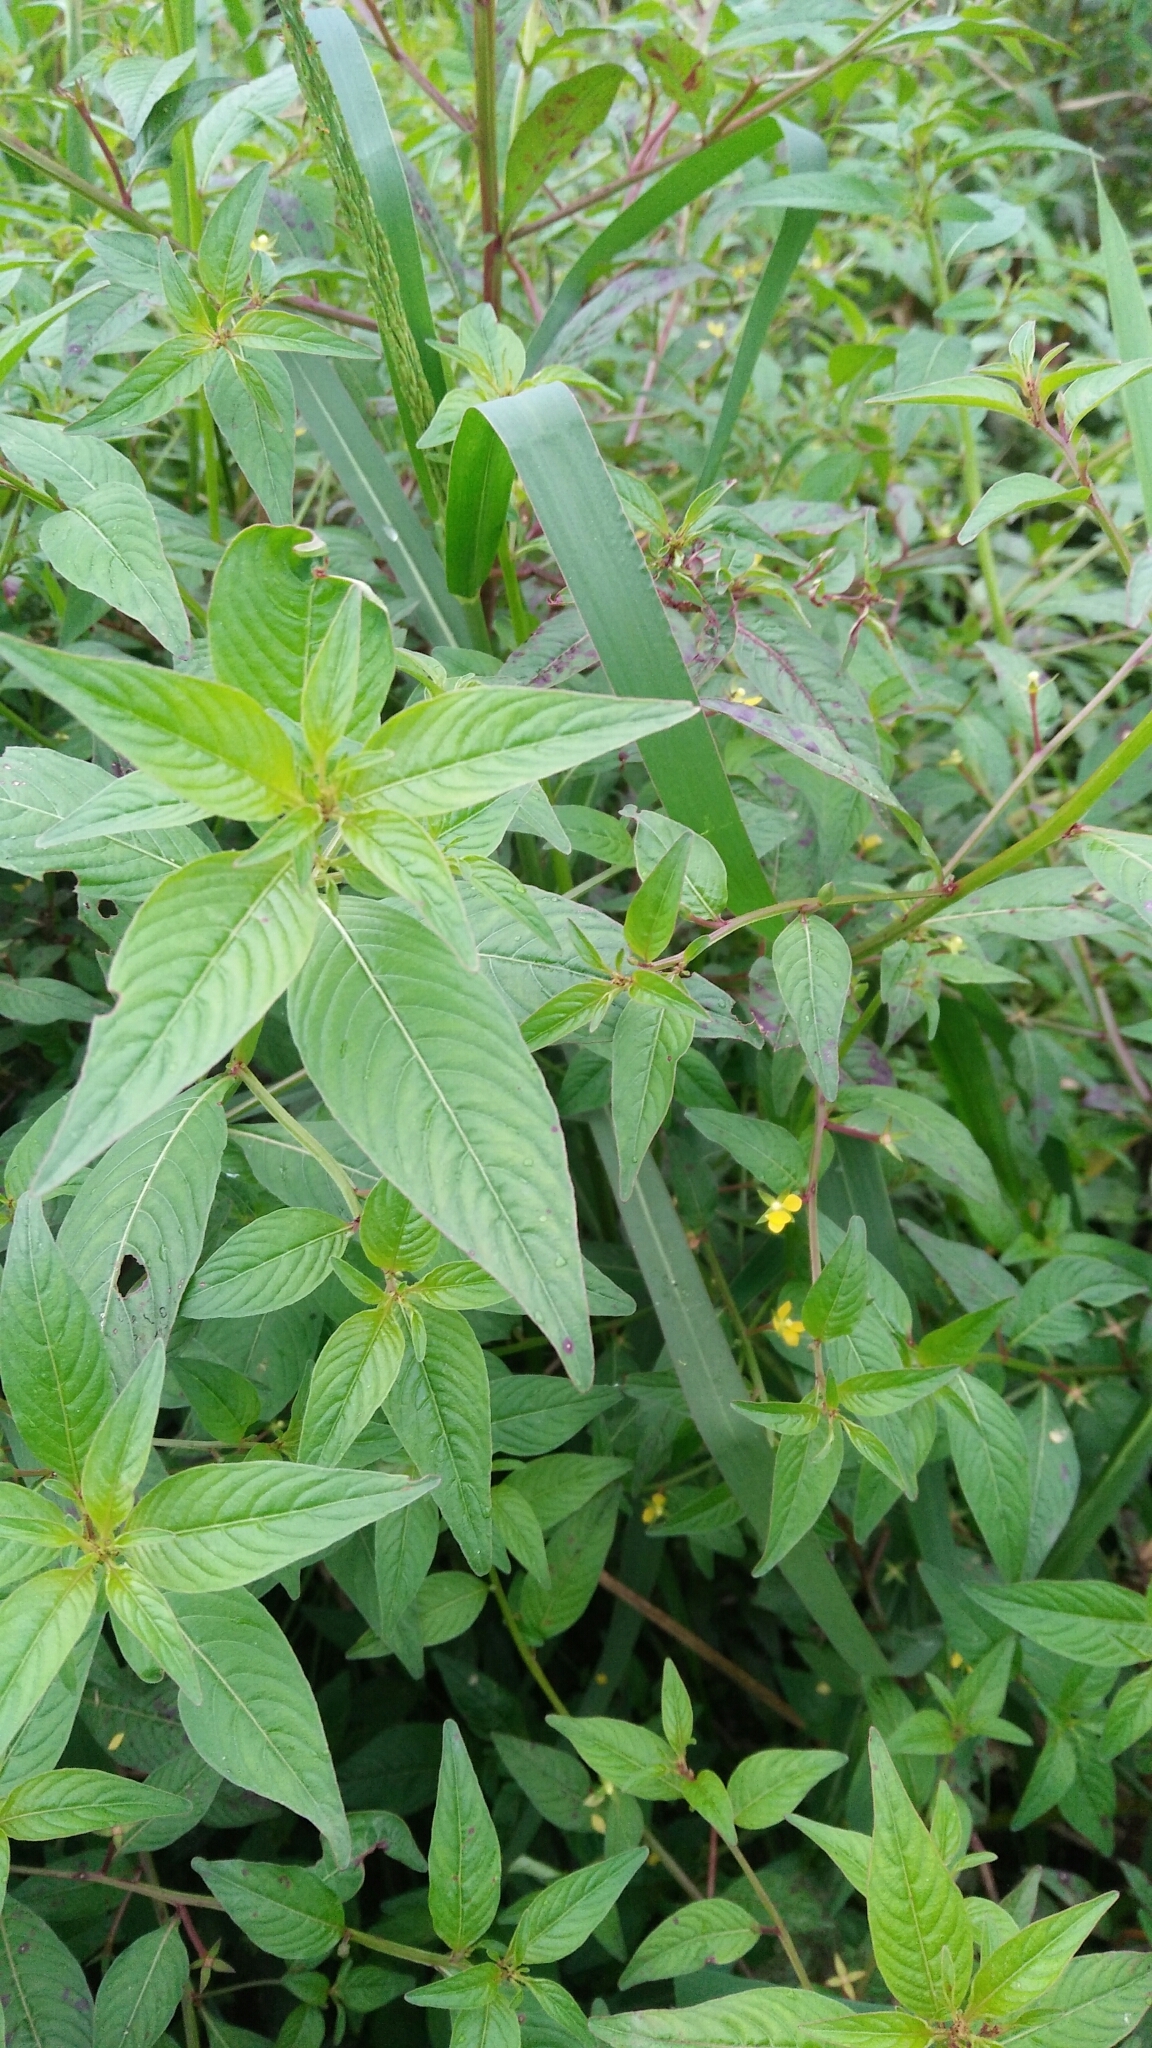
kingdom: Plantae
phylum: Tracheophyta
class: Magnoliopsida
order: Myrtales
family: Onagraceae
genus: Ludwigia
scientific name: Ludwigia hyssopifolia
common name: Linear leaf water primrose
